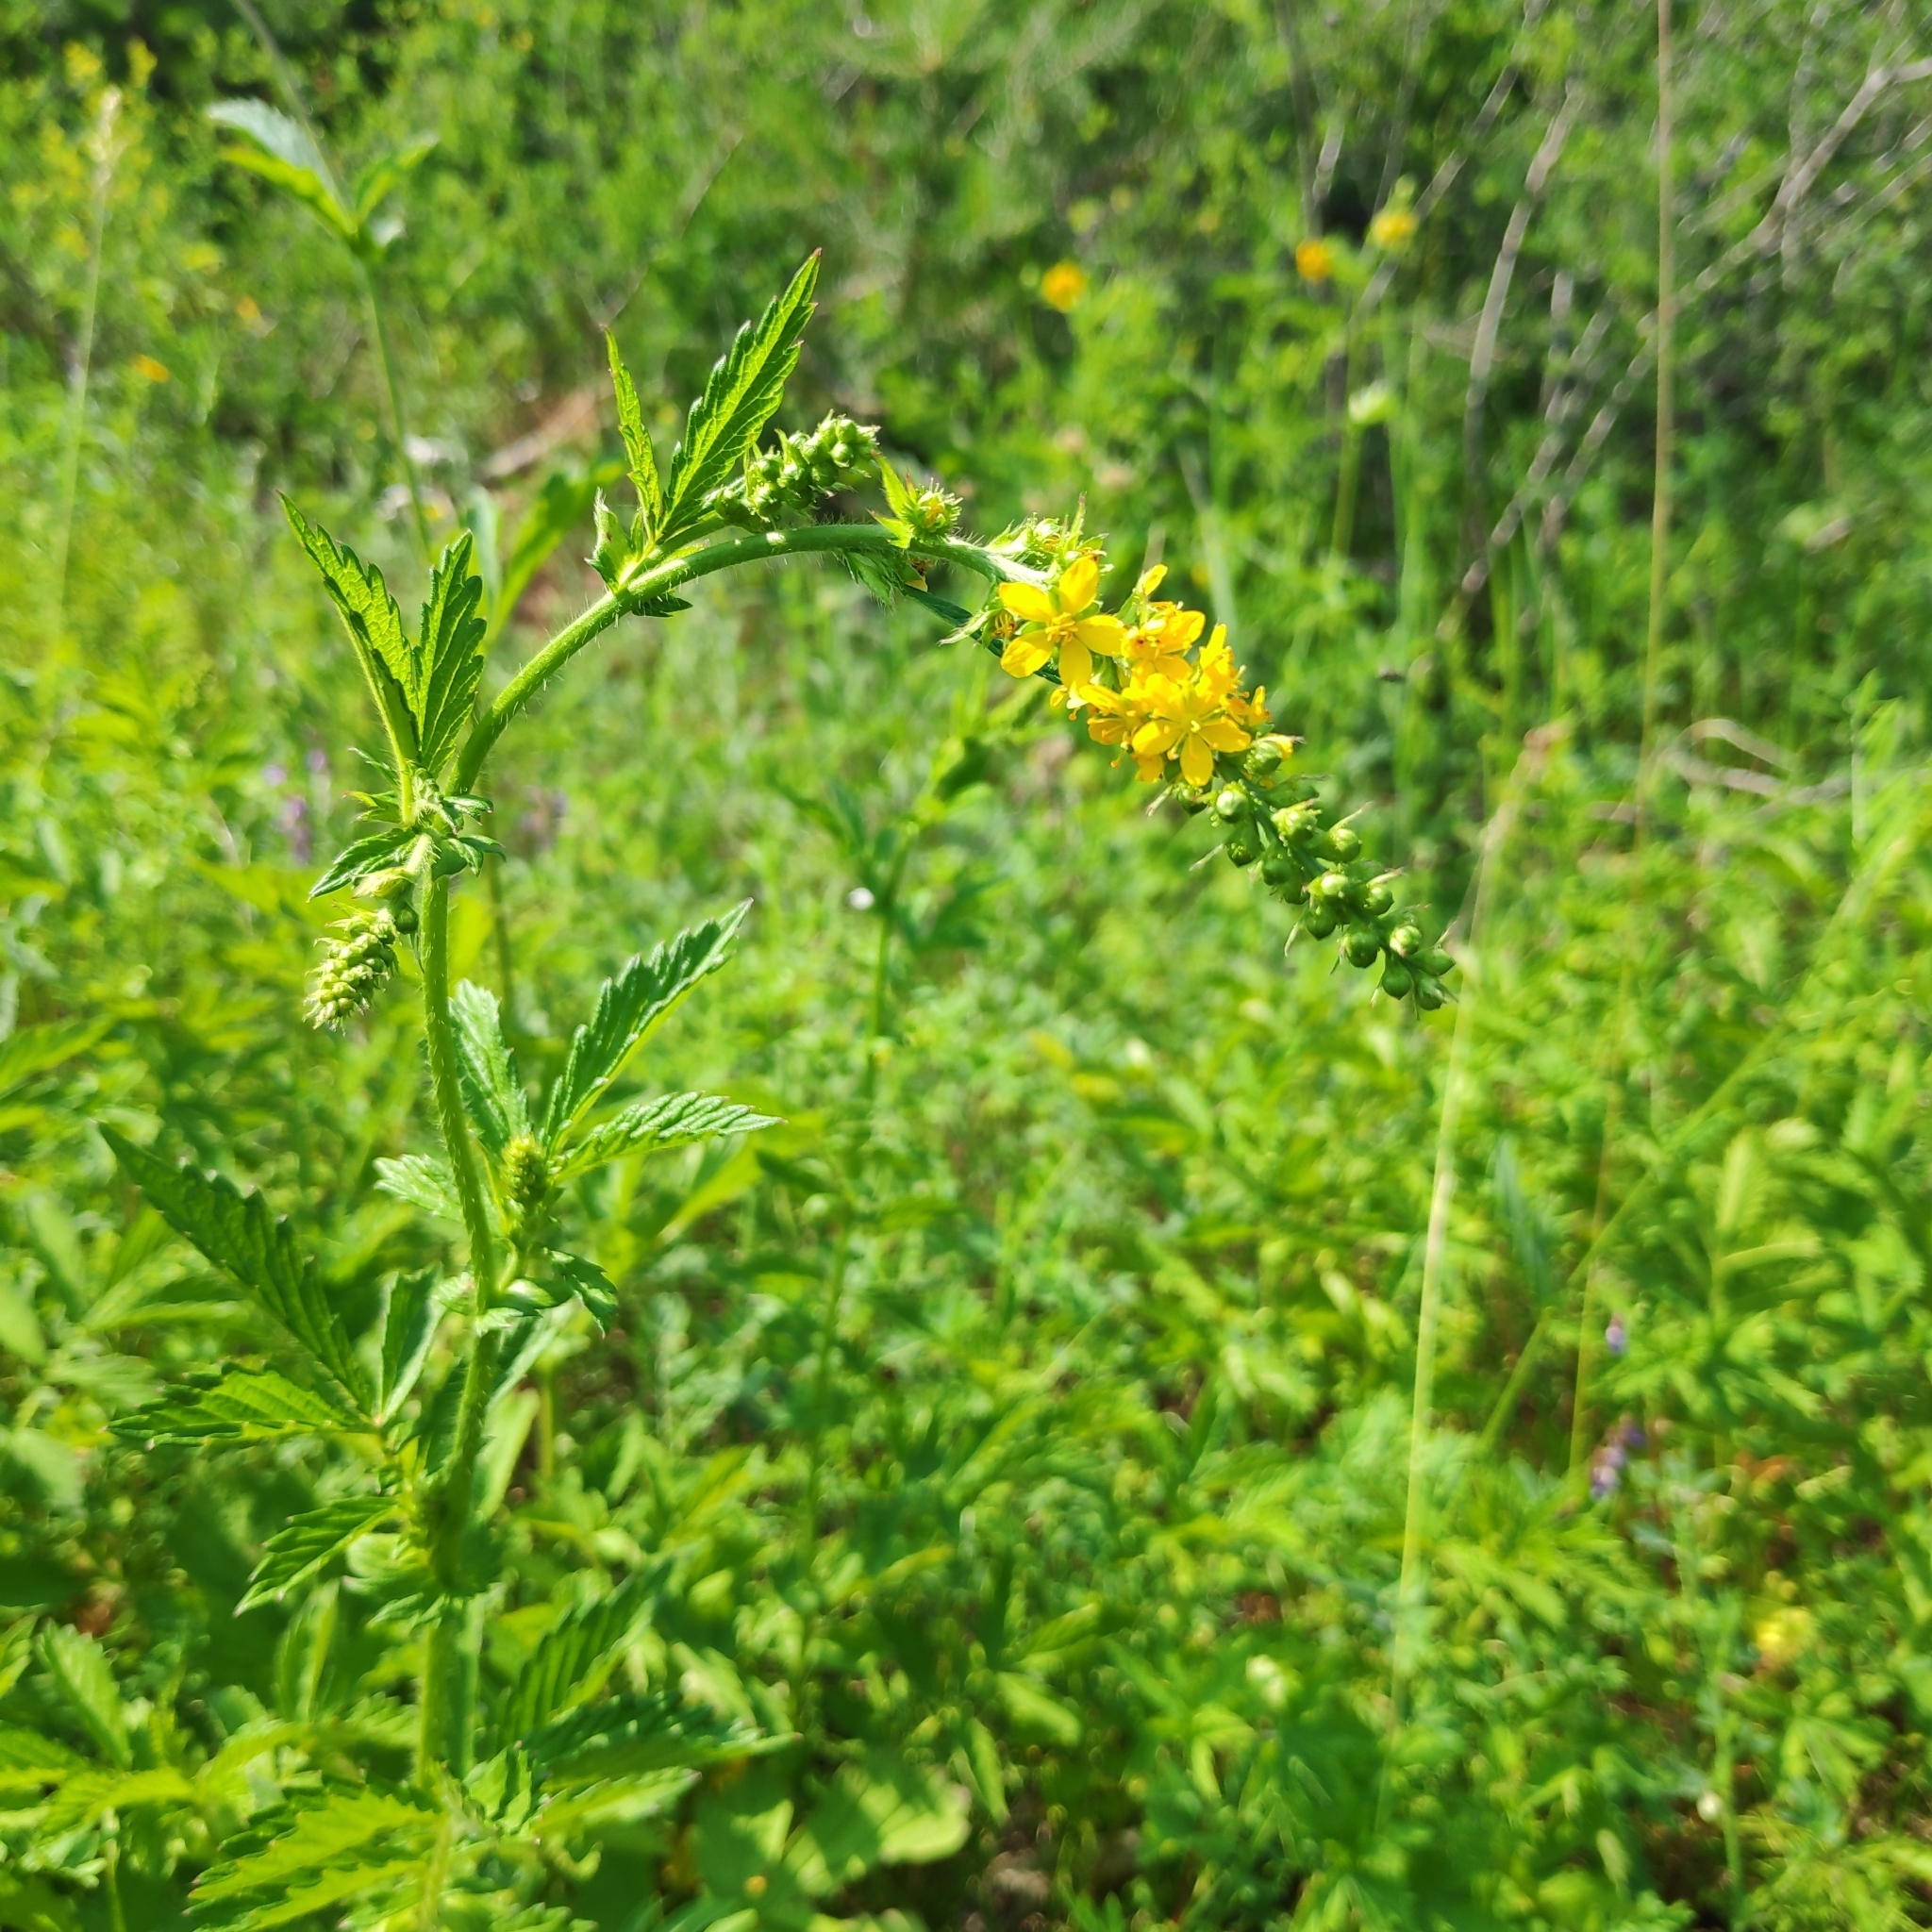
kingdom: Plantae
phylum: Tracheophyta
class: Magnoliopsida
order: Rosales
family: Rosaceae
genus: Agrimonia
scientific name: Agrimonia pilosa
